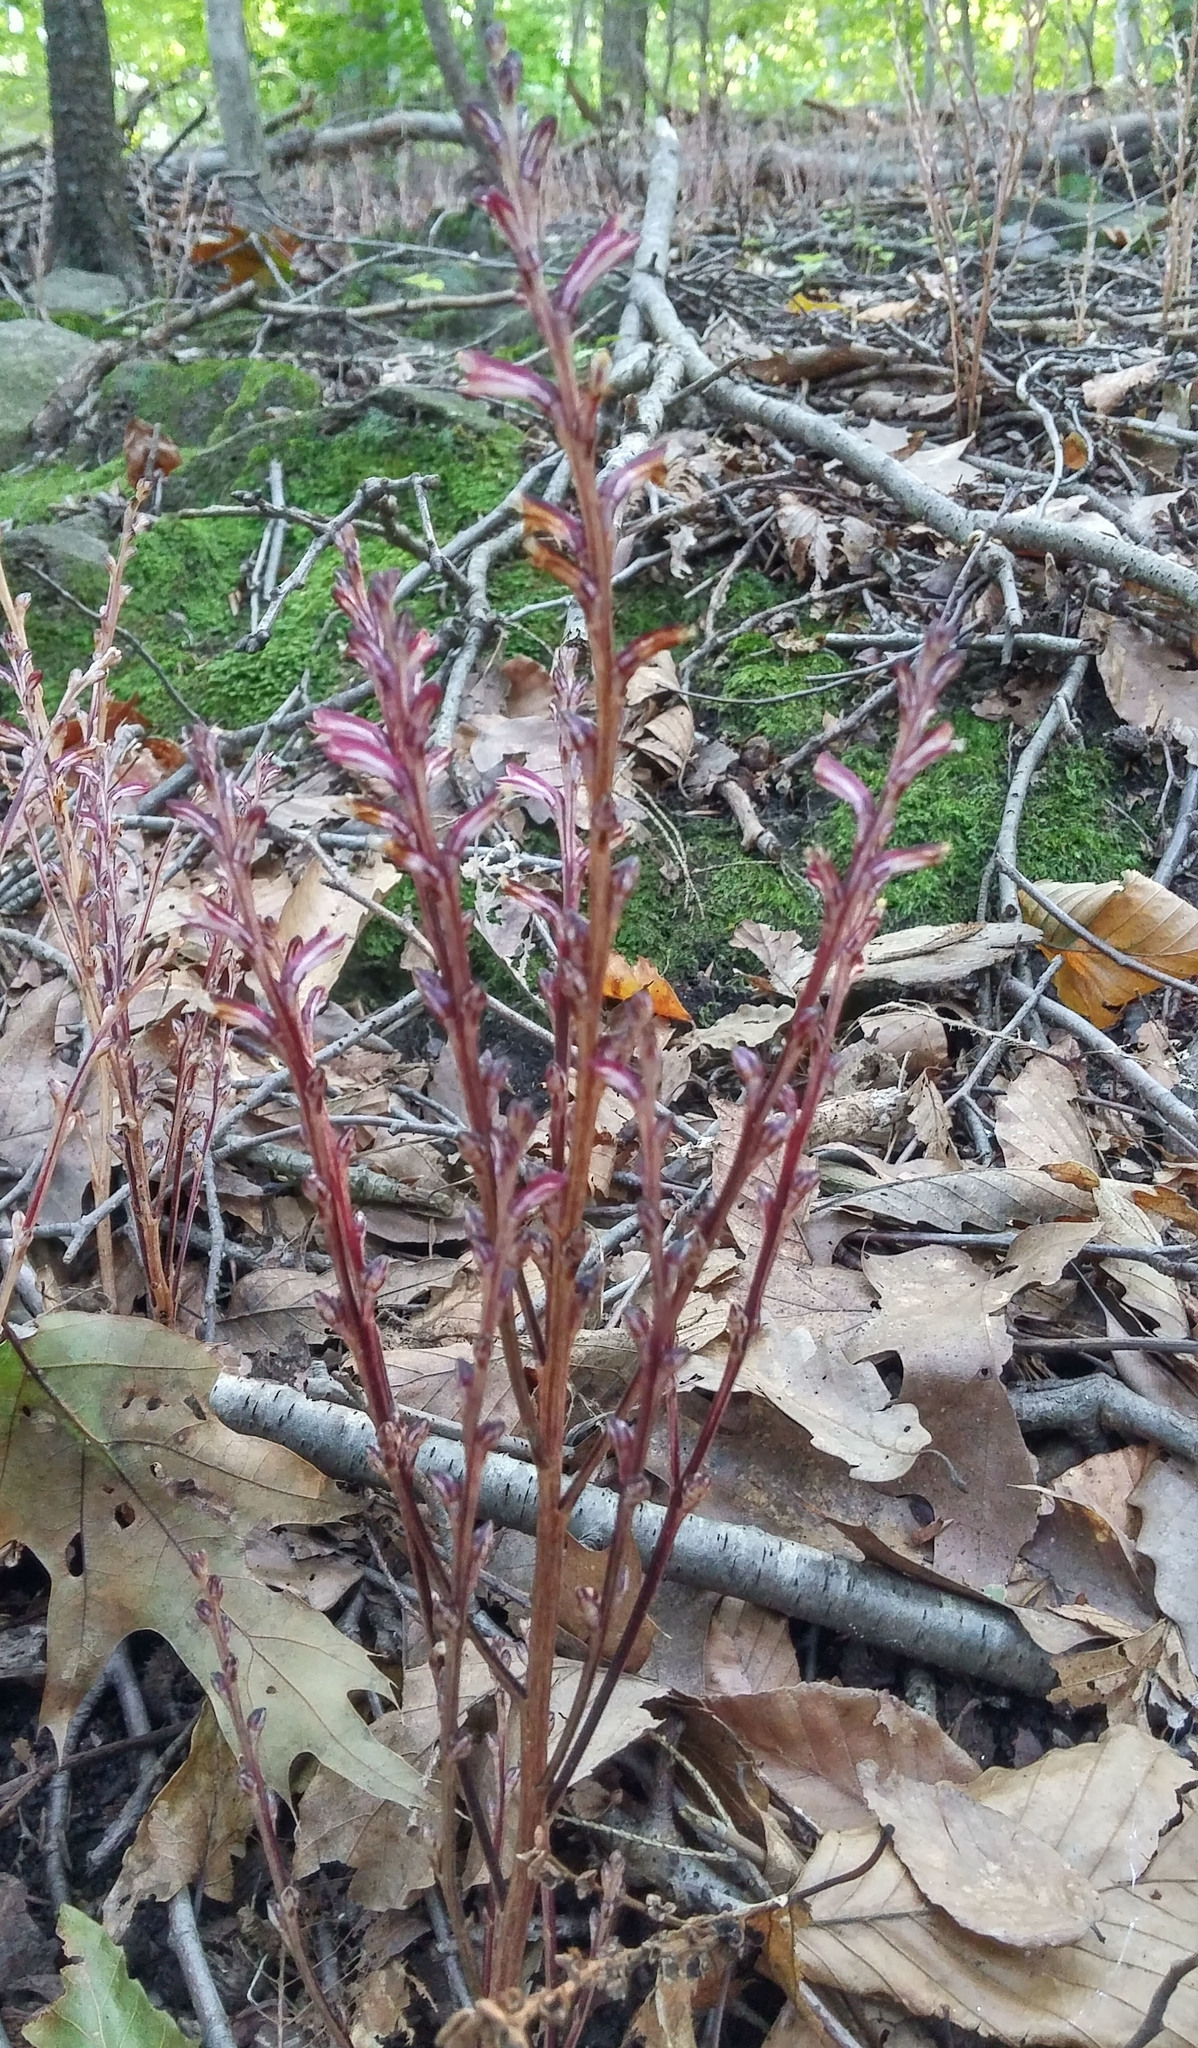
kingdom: Plantae
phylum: Tracheophyta
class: Magnoliopsida
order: Lamiales
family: Orobanchaceae
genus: Epifagus
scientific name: Epifagus virginiana
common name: Beechdrops
